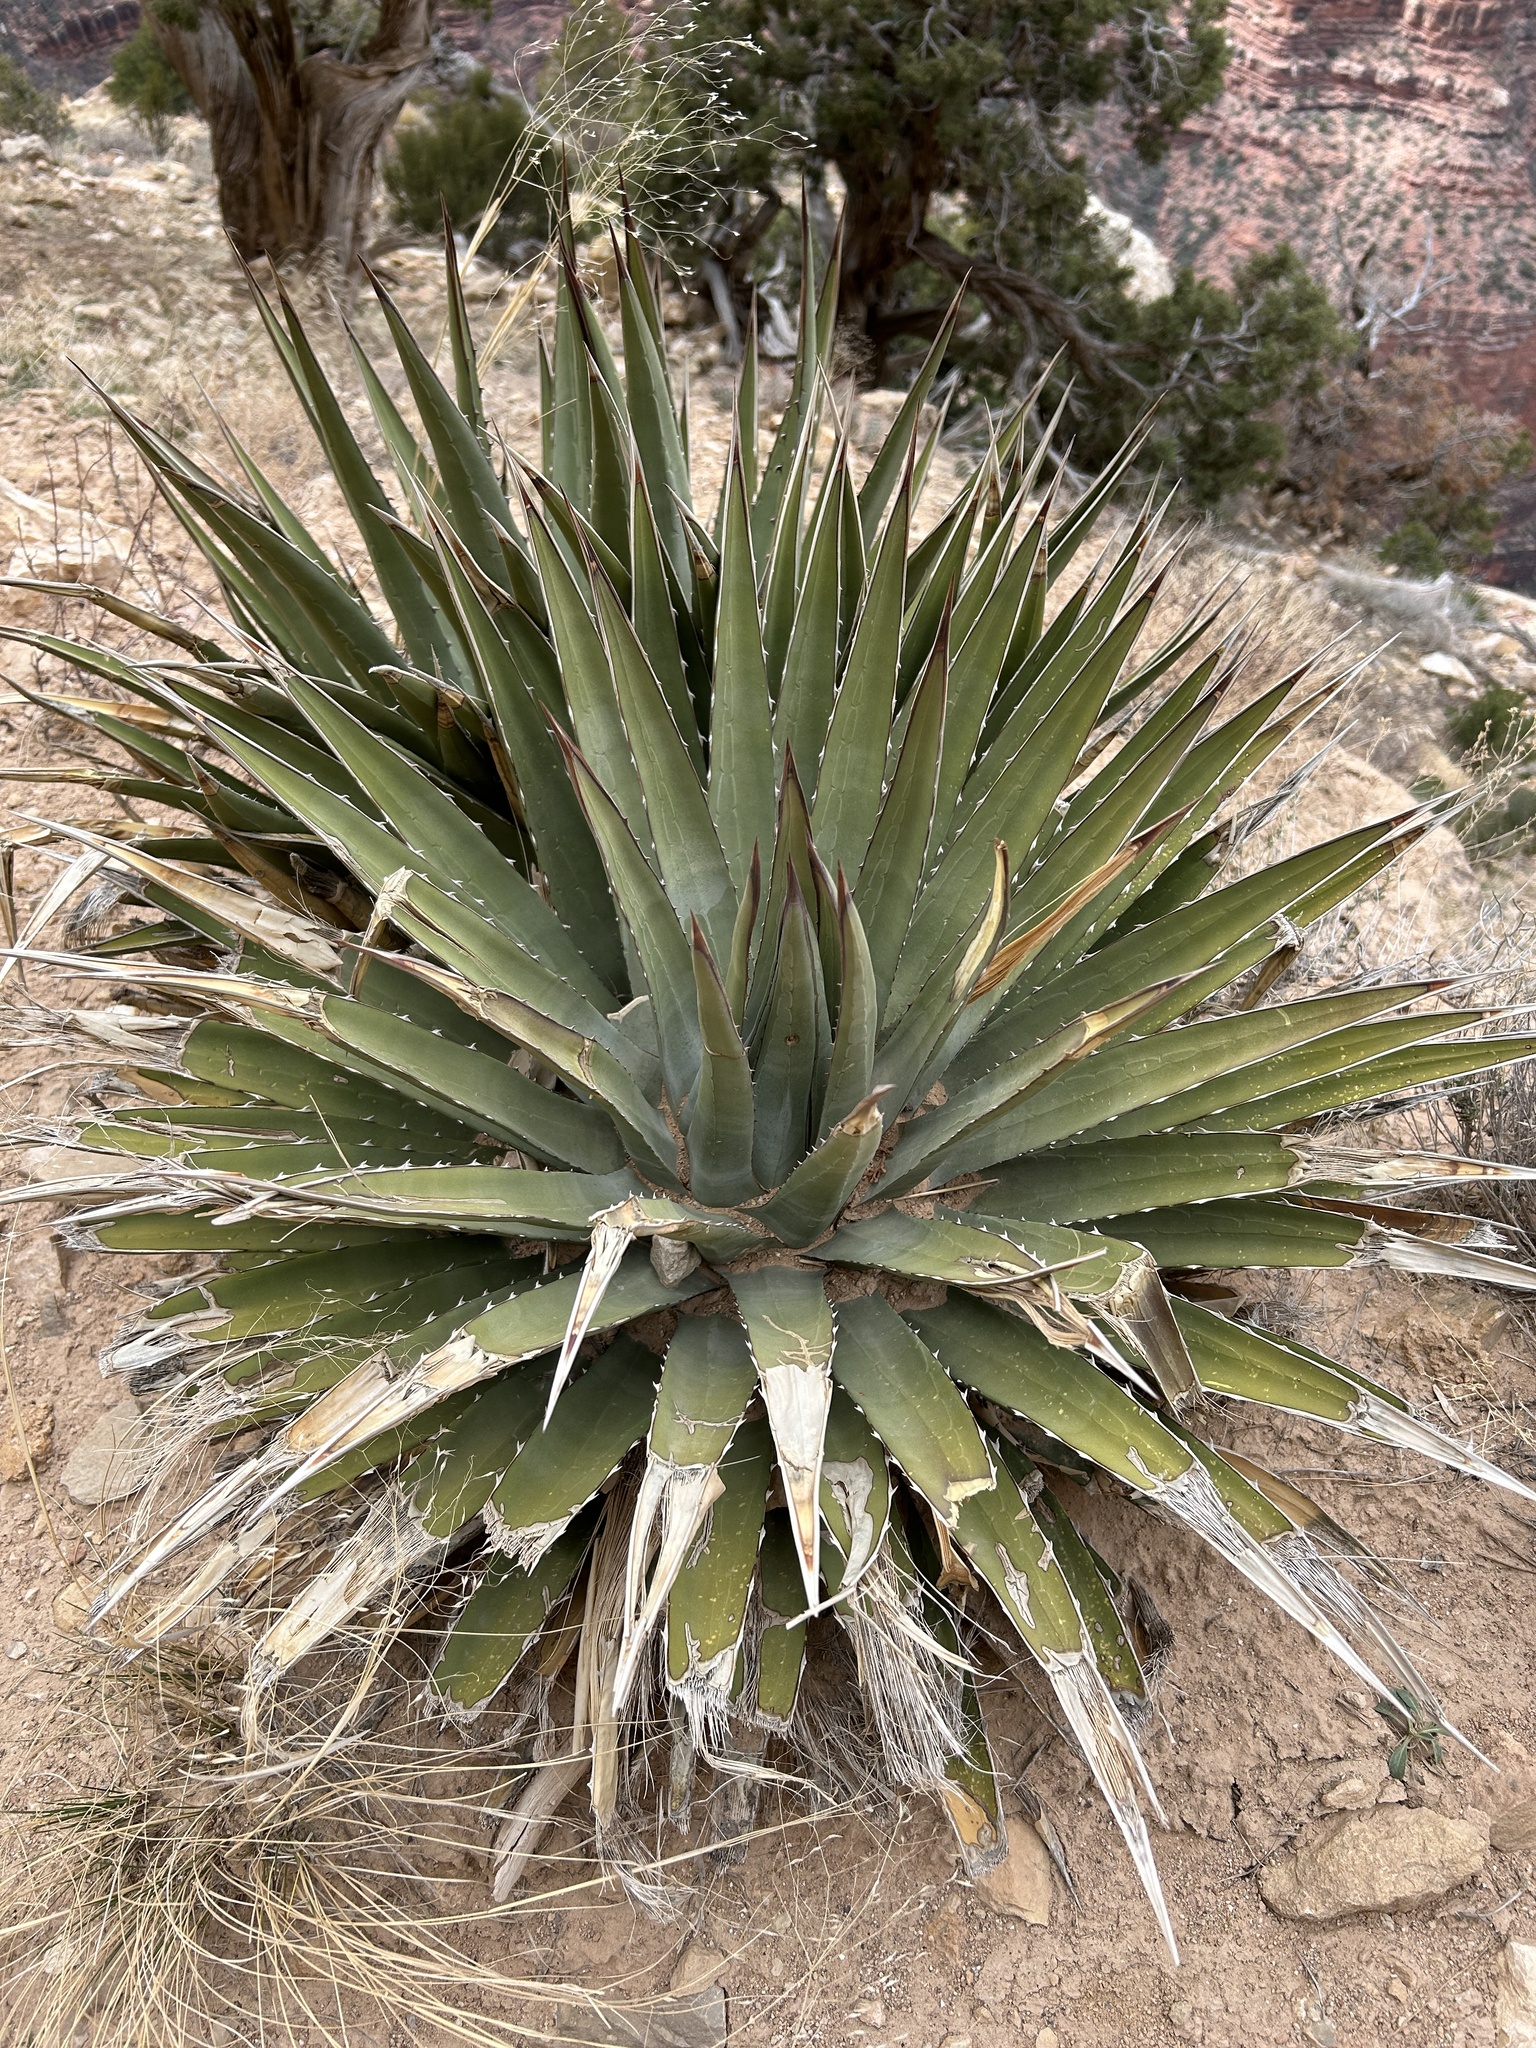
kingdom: Plantae
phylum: Tracheophyta
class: Liliopsida
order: Asparagales
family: Asparagaceae
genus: Agave
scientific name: Agave utahensis
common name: Utah agave
